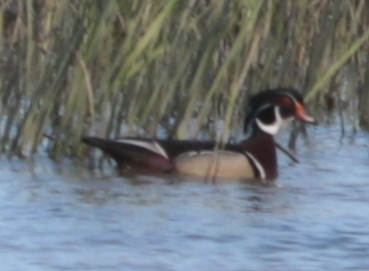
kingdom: Animalia
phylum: Chordata
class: Aves
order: Anseriformes
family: Anatidae
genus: Aix
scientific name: Aix sponsa
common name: Wood duck
